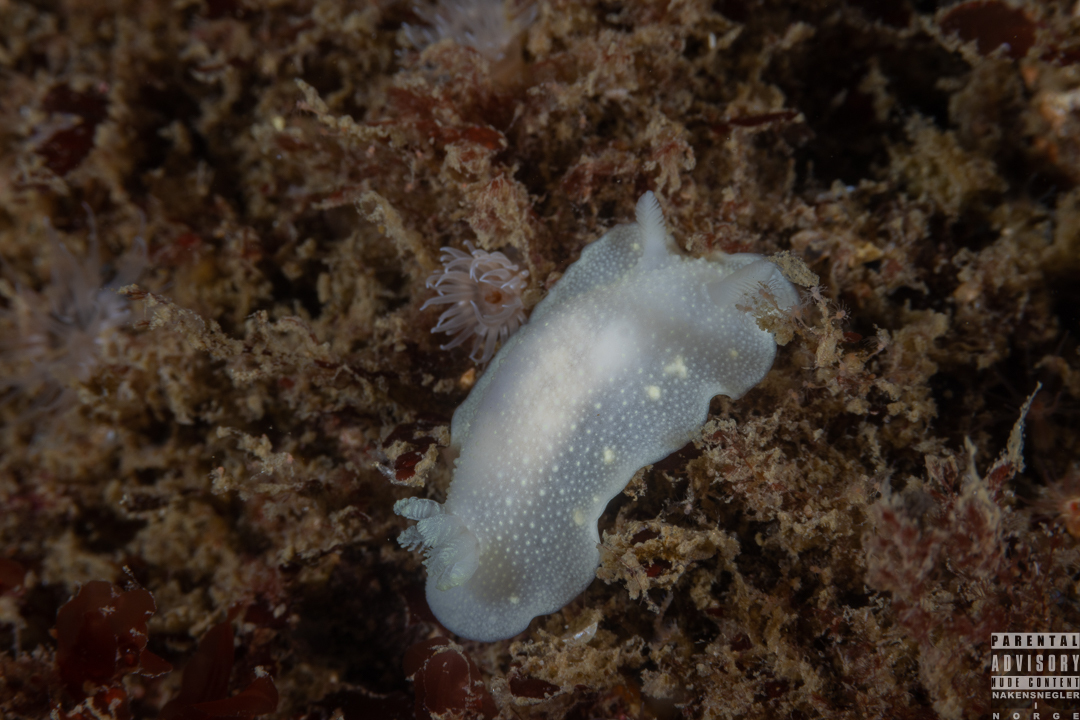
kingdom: Animalia
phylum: Mollusca
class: Gastropoda
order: Nudibranchia
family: Cadlinidae
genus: Cadlina
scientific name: Cadlina laevis
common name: White atlantic cadlina
